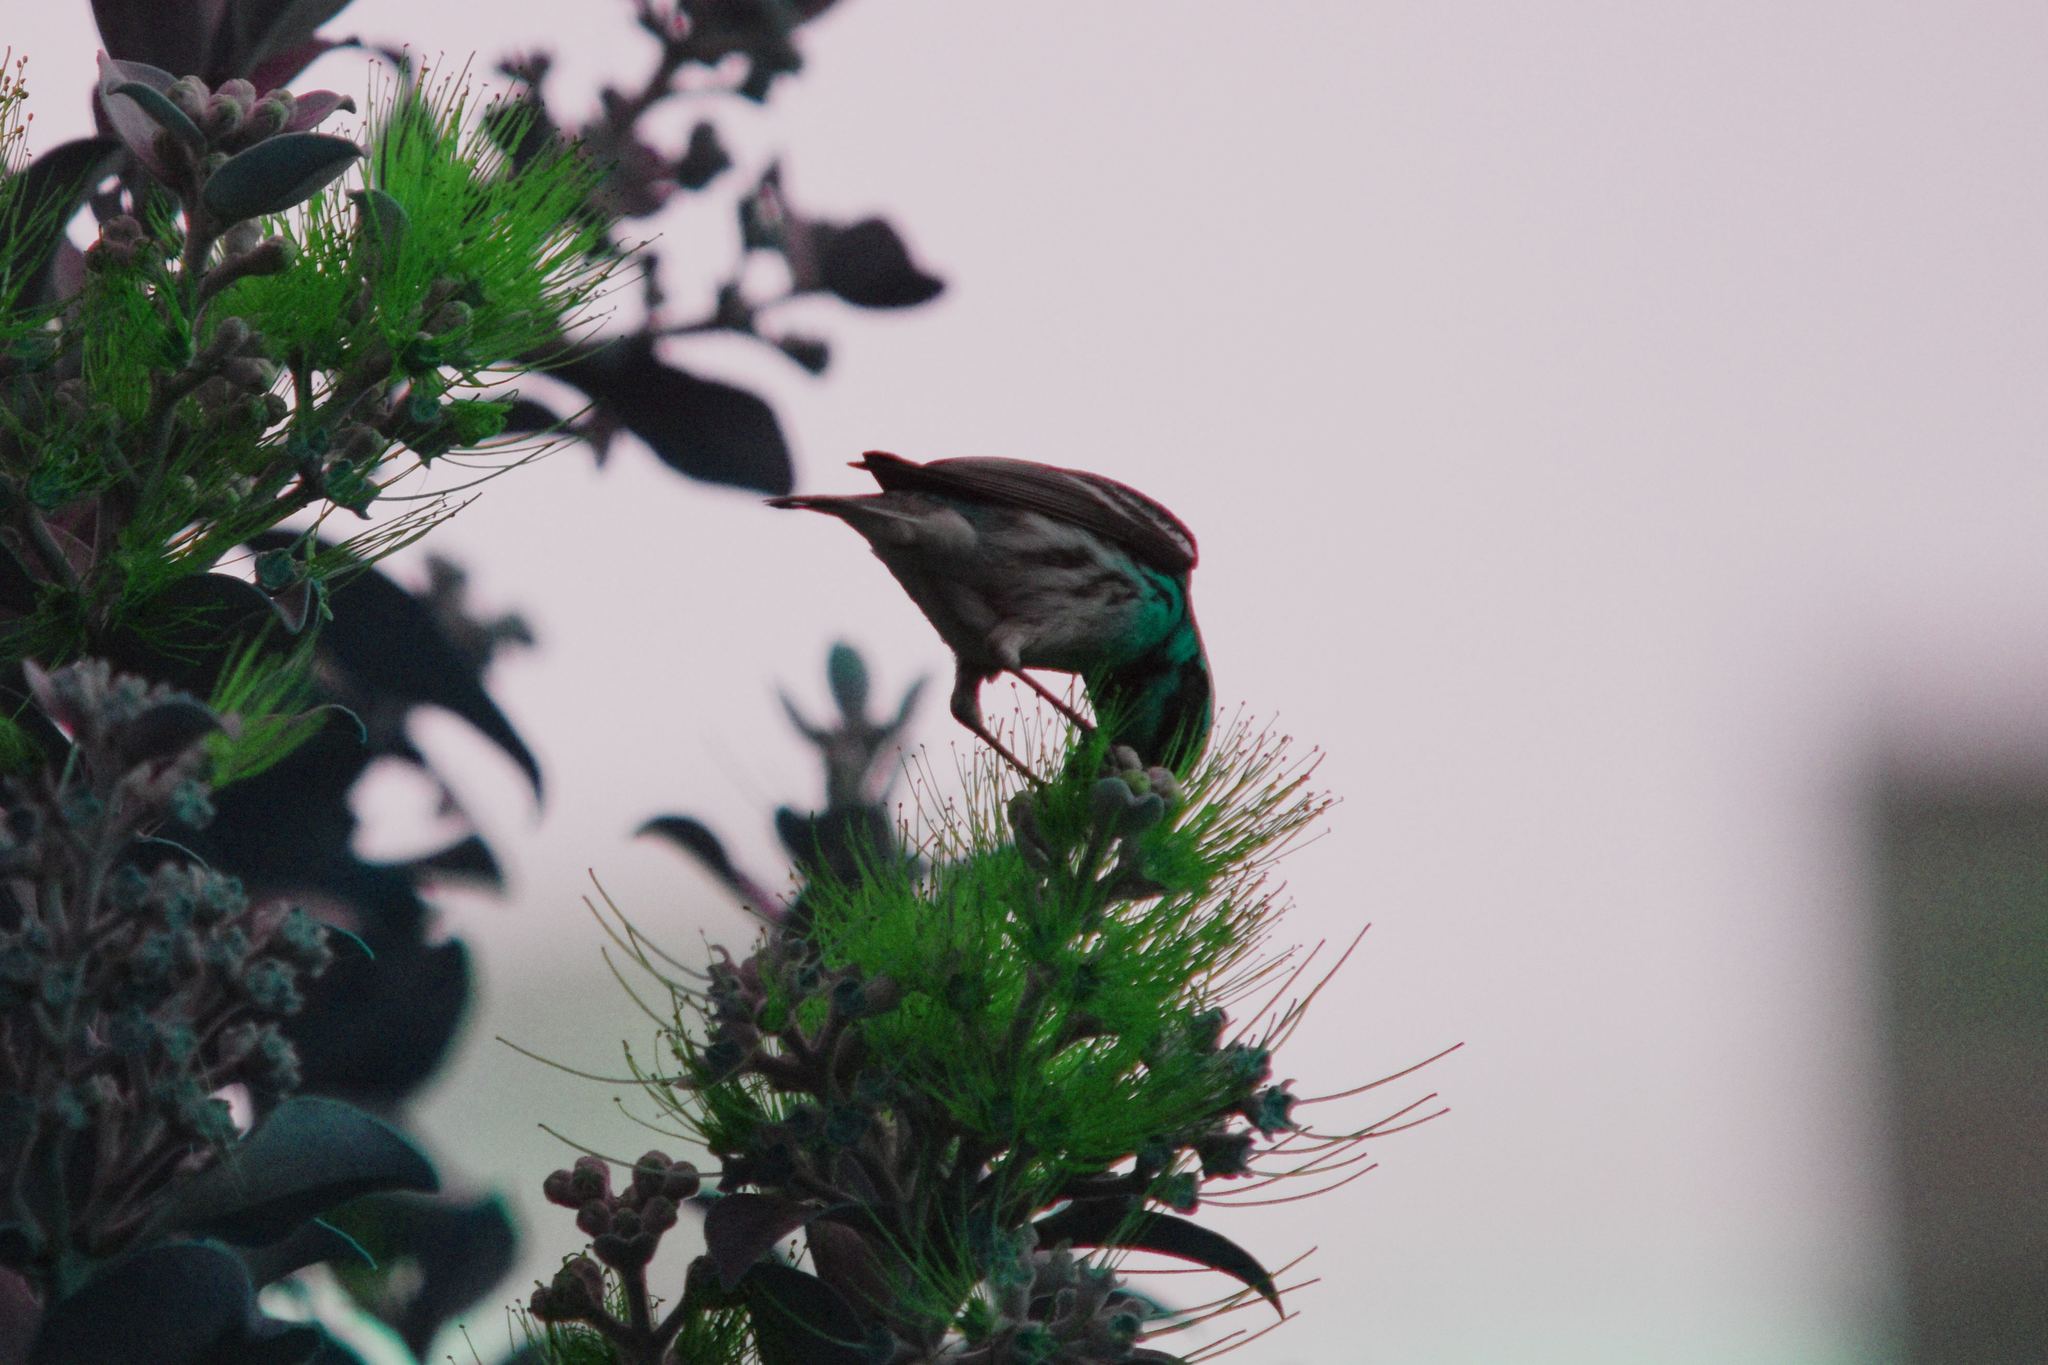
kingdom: Animalia
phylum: Chordata
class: Aves
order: Passeriformes
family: Parulidae
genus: Setophaga
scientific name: Setophaga townsendi
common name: Townsend's warbler
